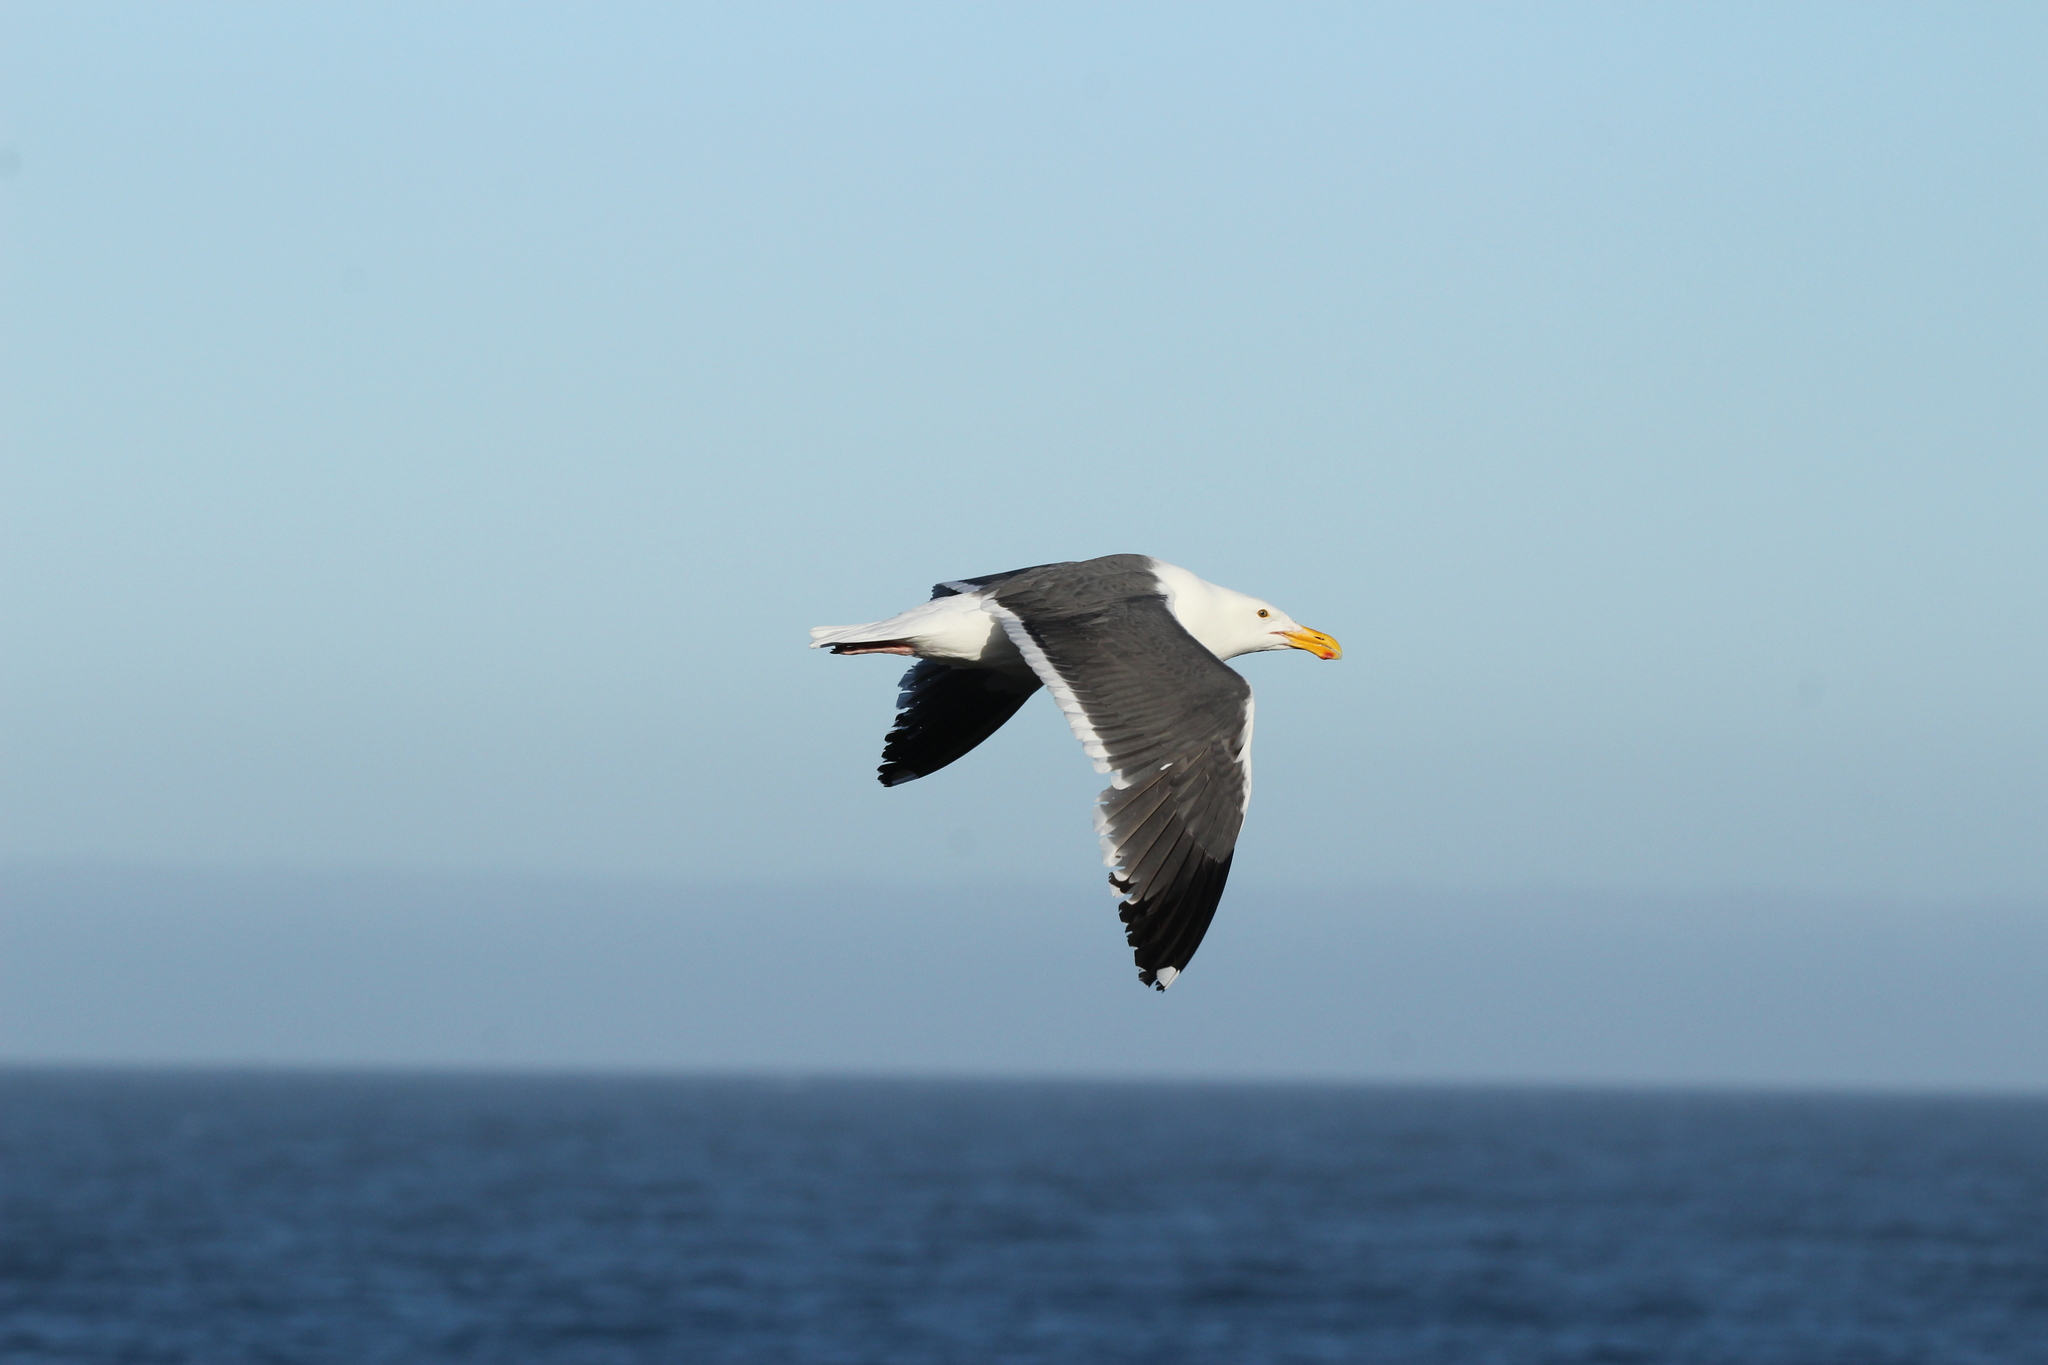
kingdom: Animalia
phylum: Chordata
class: Aves
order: Charadriiformes
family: Laridae
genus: Larus
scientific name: Larus occidentalis
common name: Western gull
